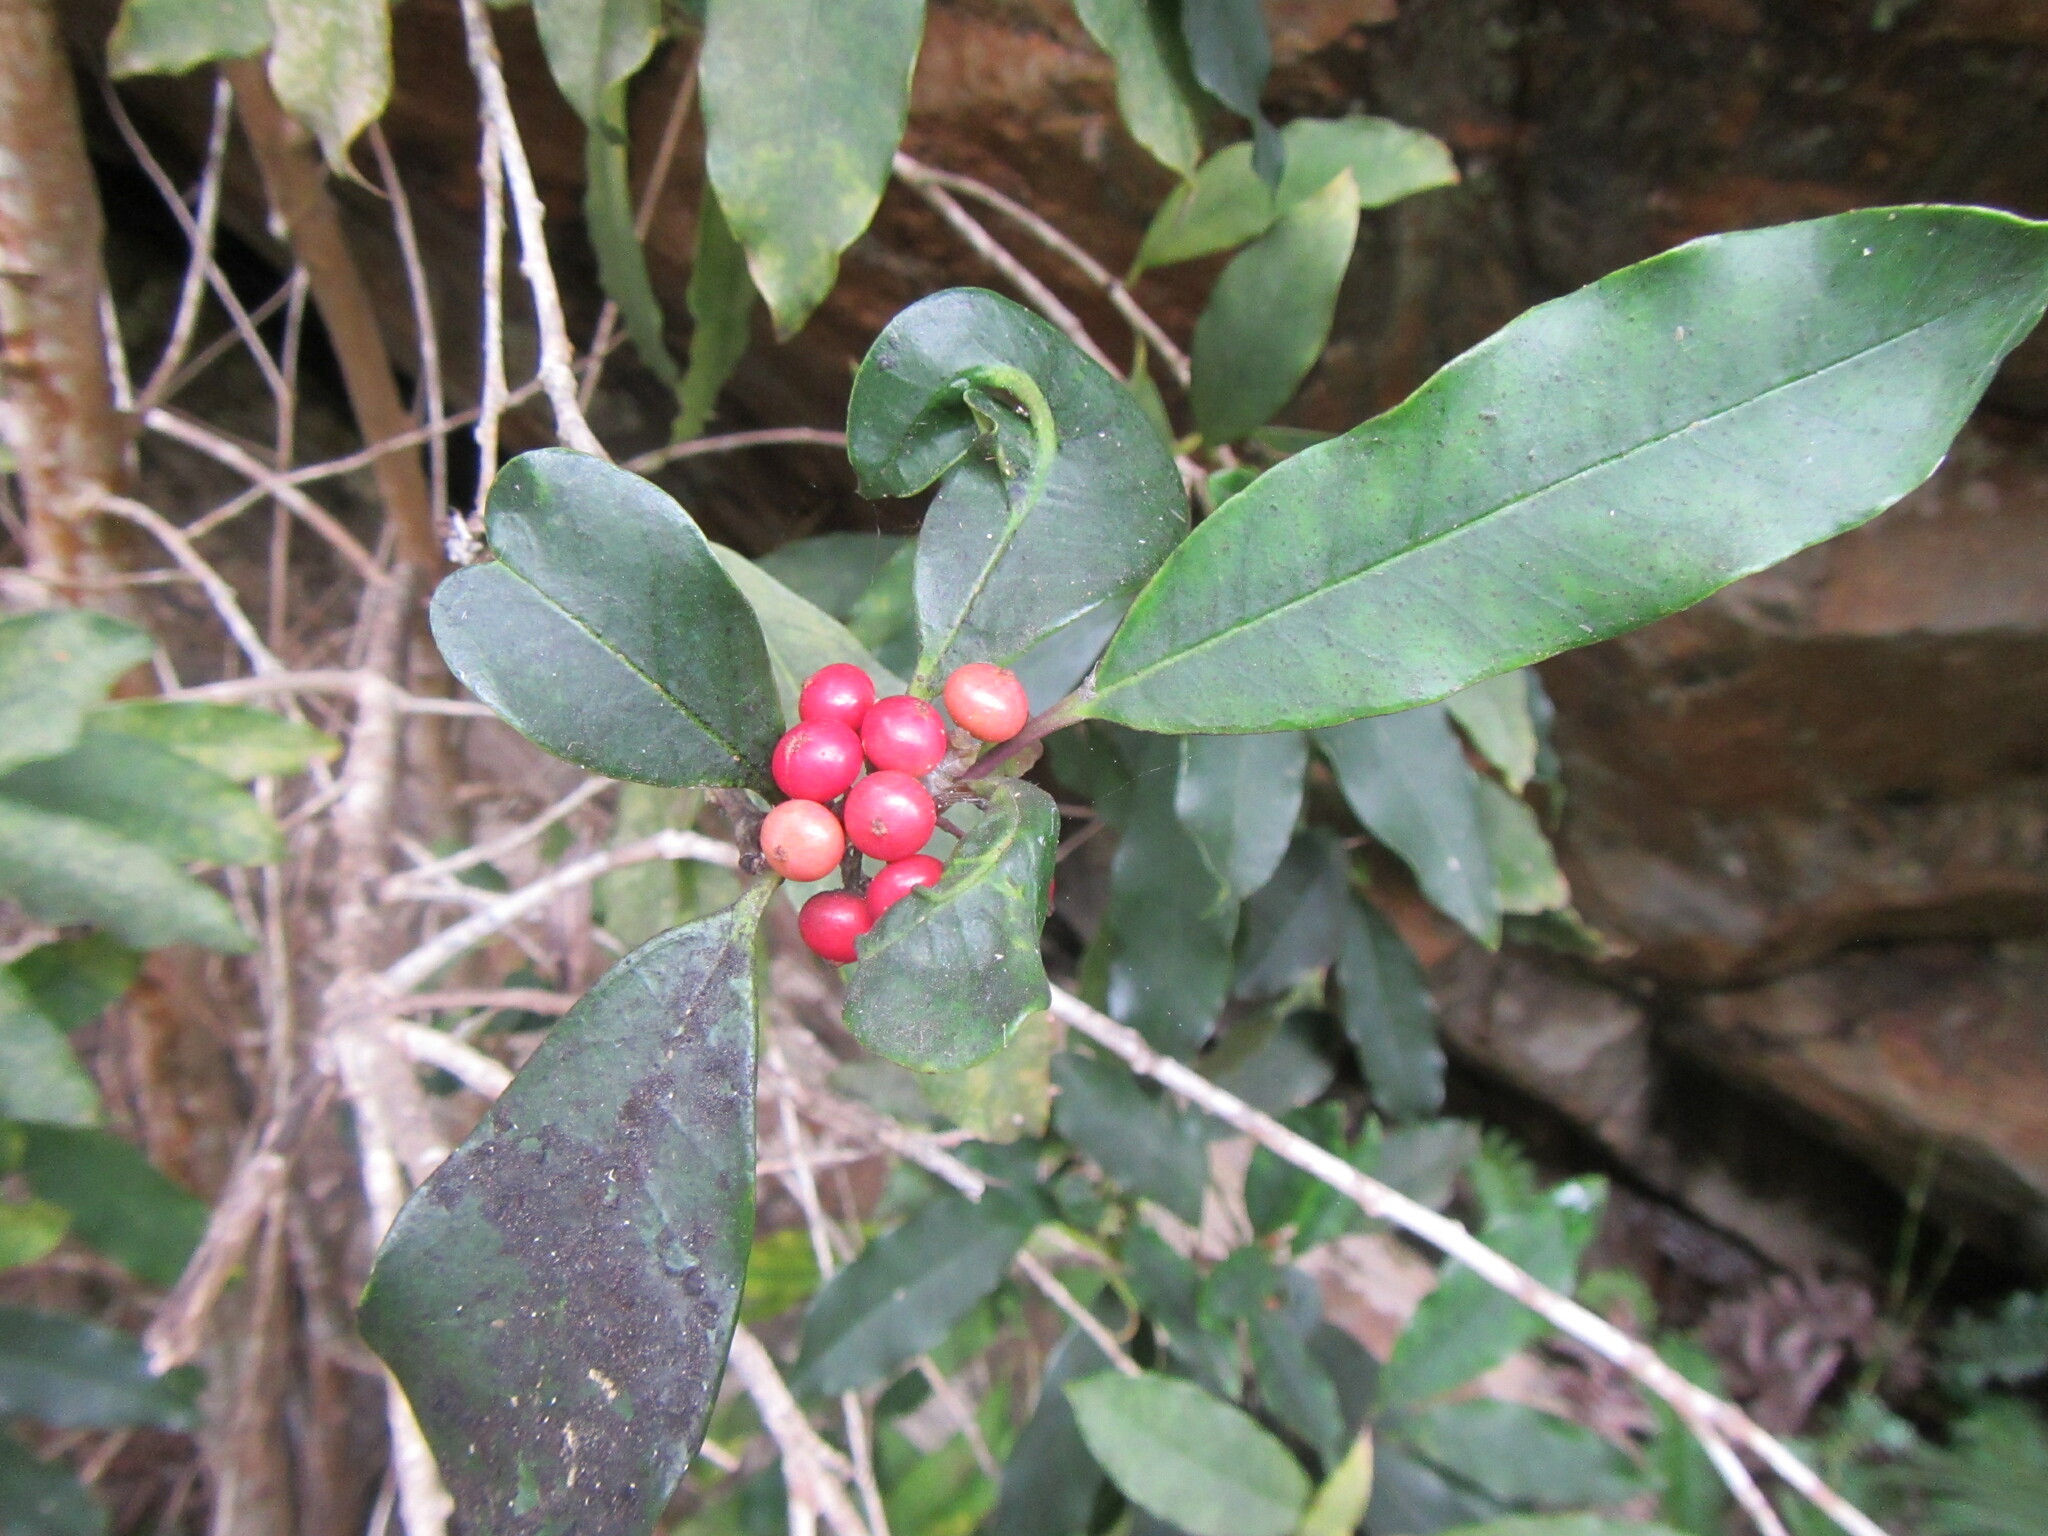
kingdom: Plantae
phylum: Tracheophyta
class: Magnoliopsida
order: Aquifoliales
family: Aquifoliaceae
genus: Ilex
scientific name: Ilex mitis
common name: African holly
